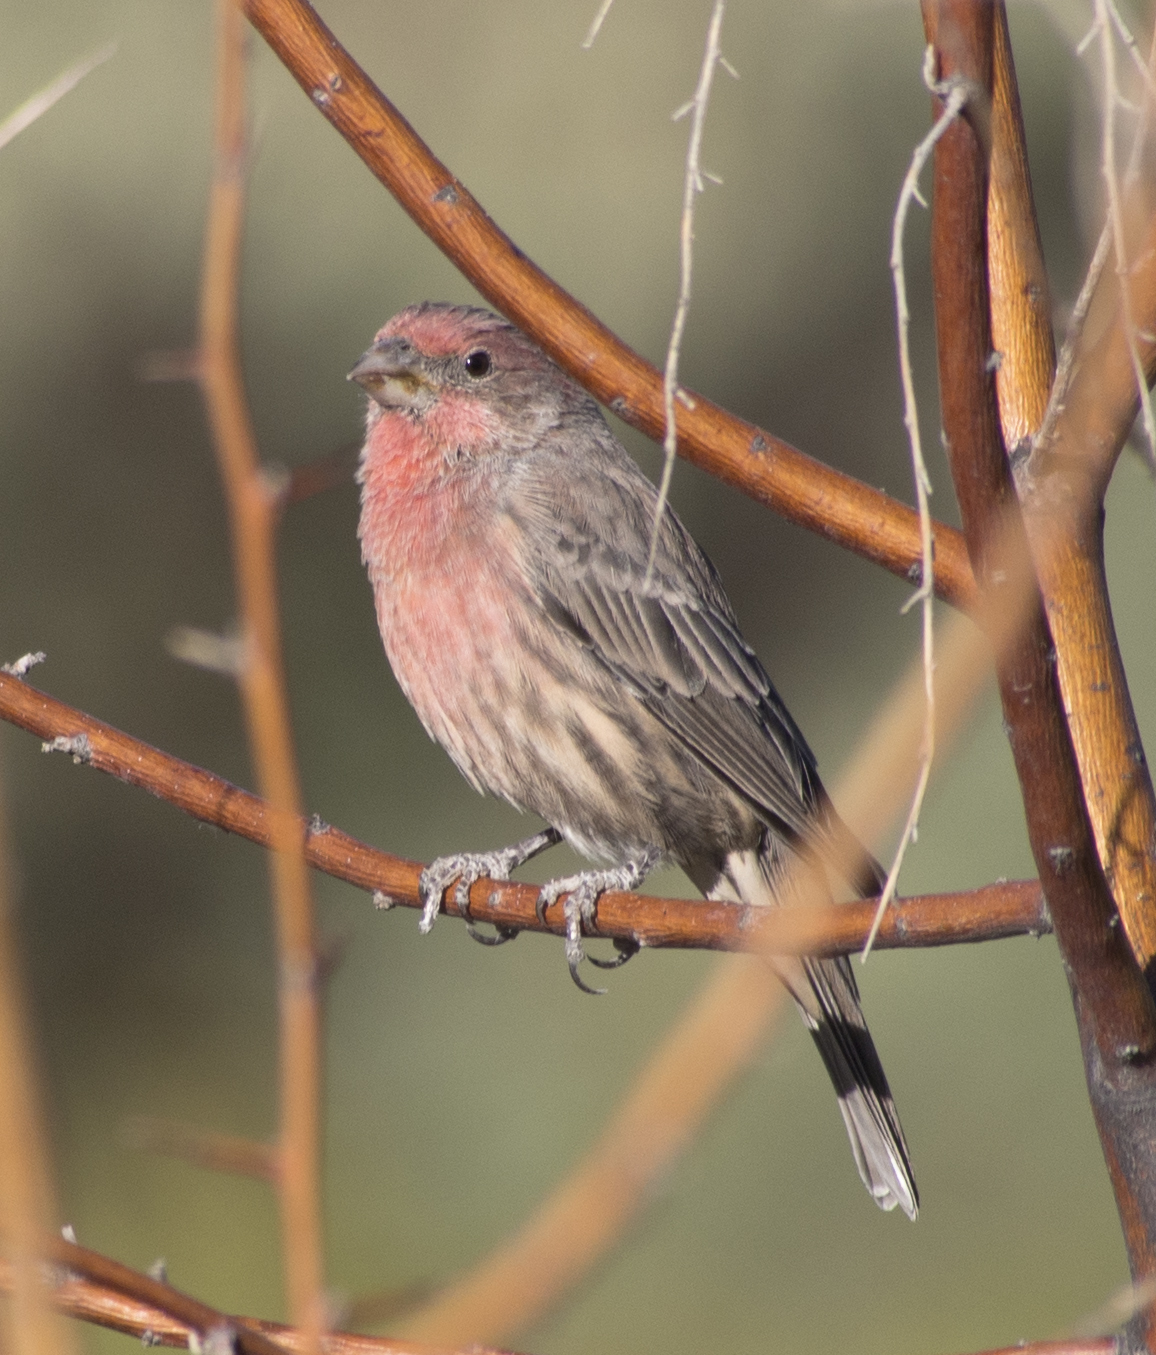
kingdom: Animalia
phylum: Chordata
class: Aves
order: Passeriformes
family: Fringillidae
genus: Haemorhous
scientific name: Haemorhous mexicanus
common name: House finch
